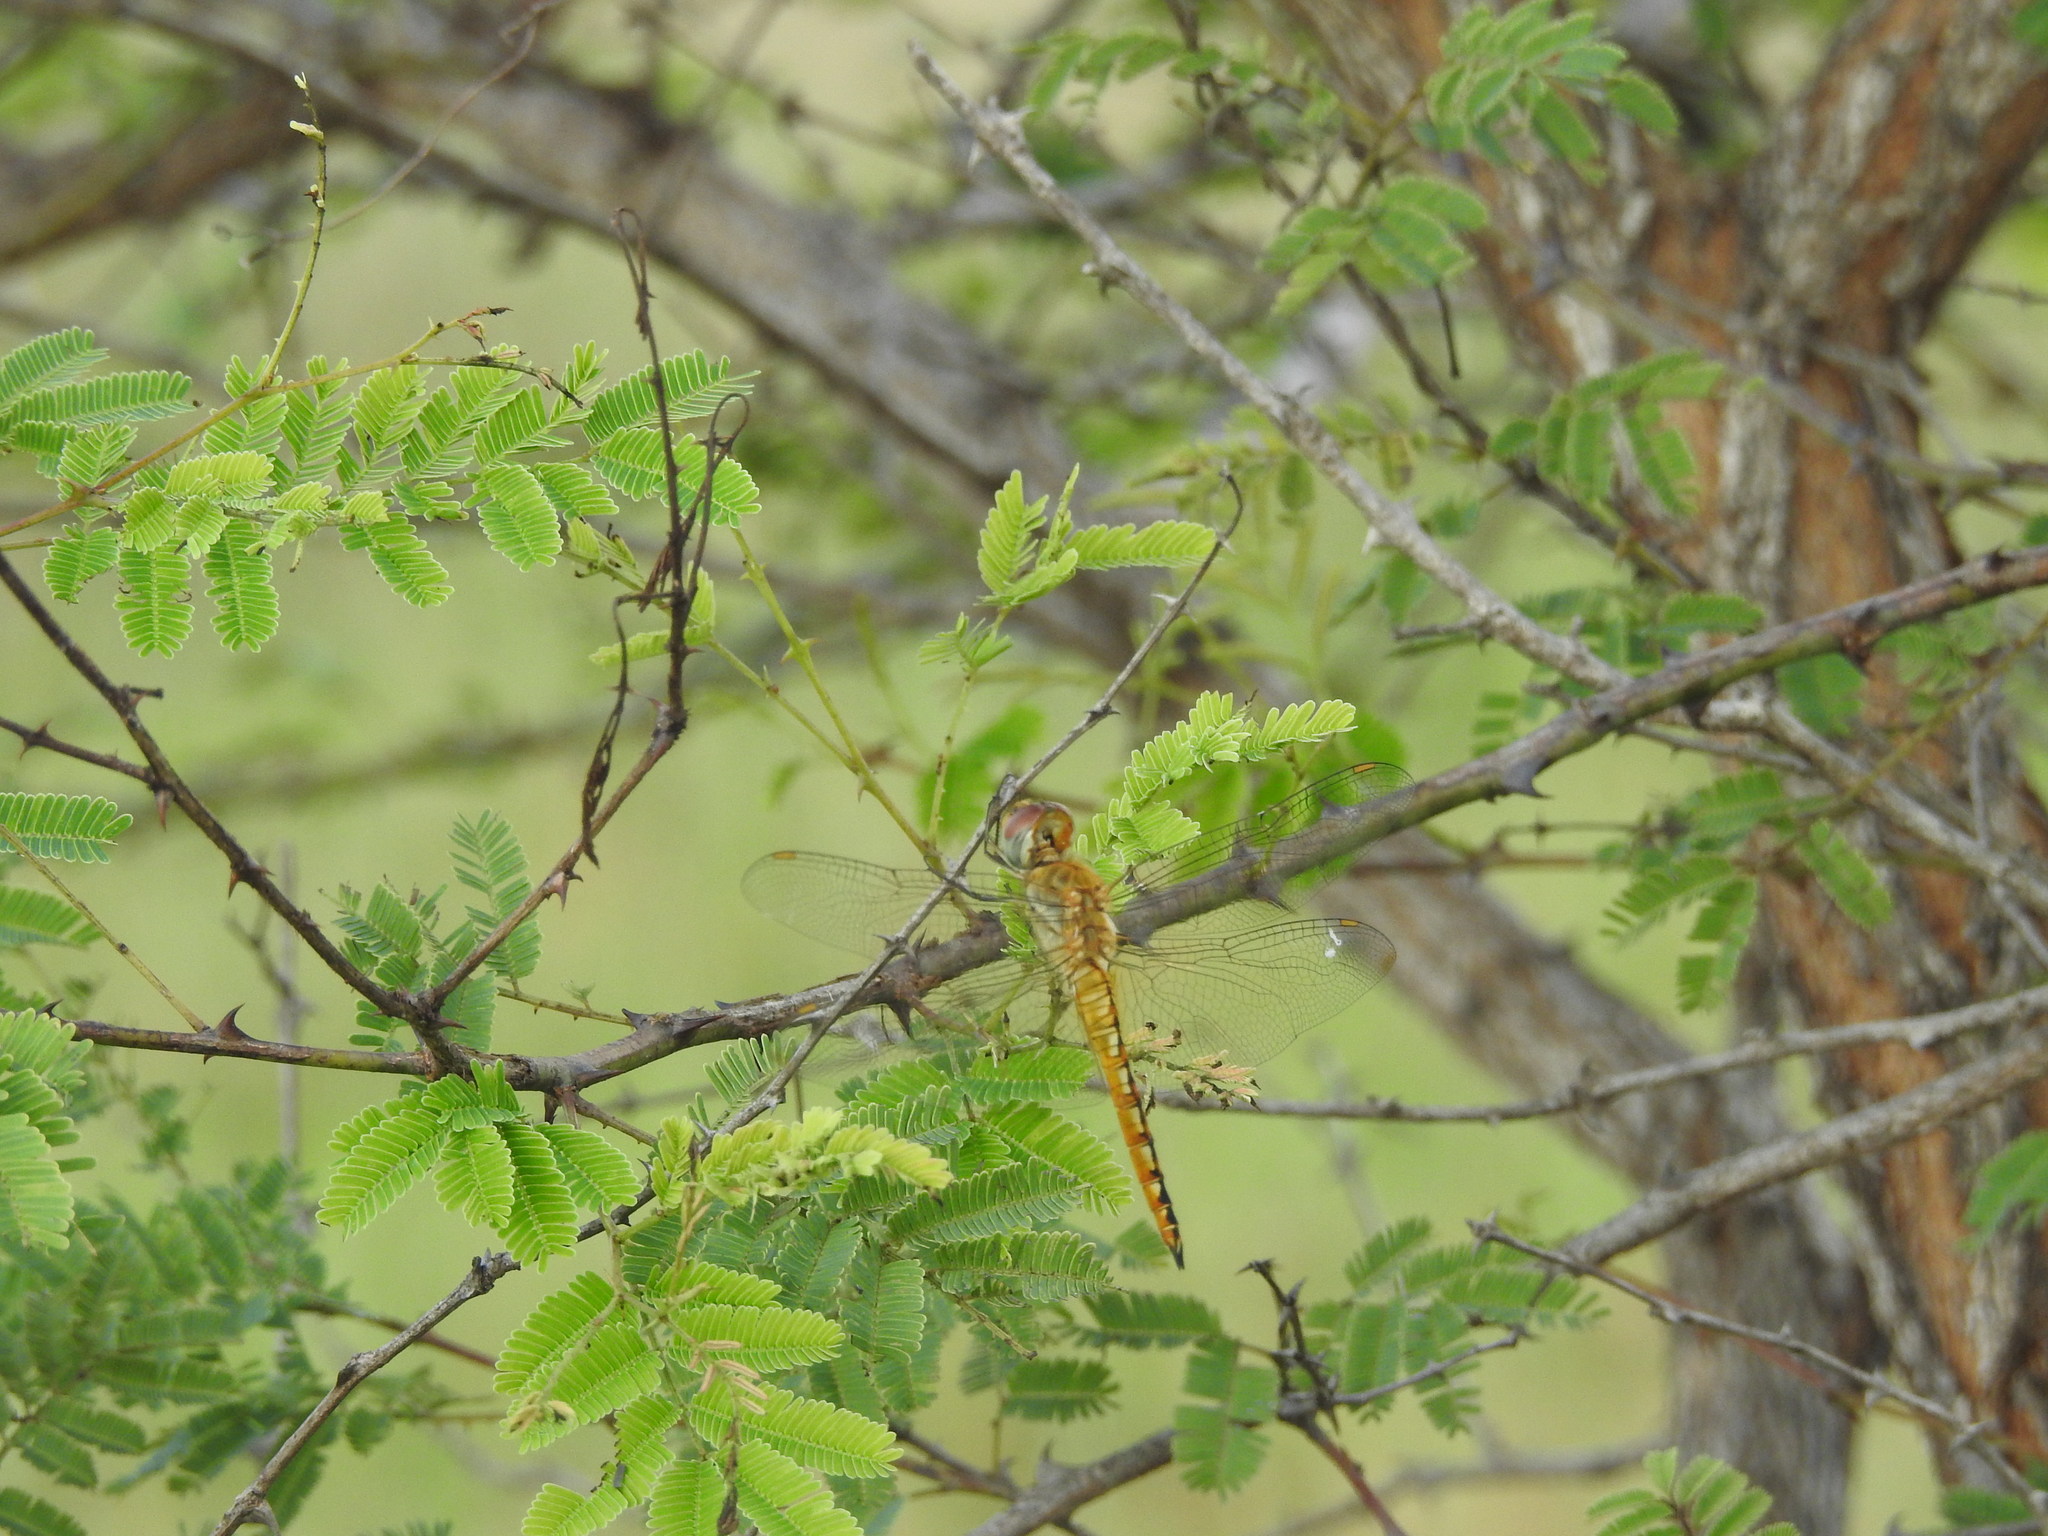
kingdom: Animalia
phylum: Arthropoda
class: Insecta
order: Odonata
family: Libellulidae
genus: Pantala
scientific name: Pantala flavescens
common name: Wandering glider
